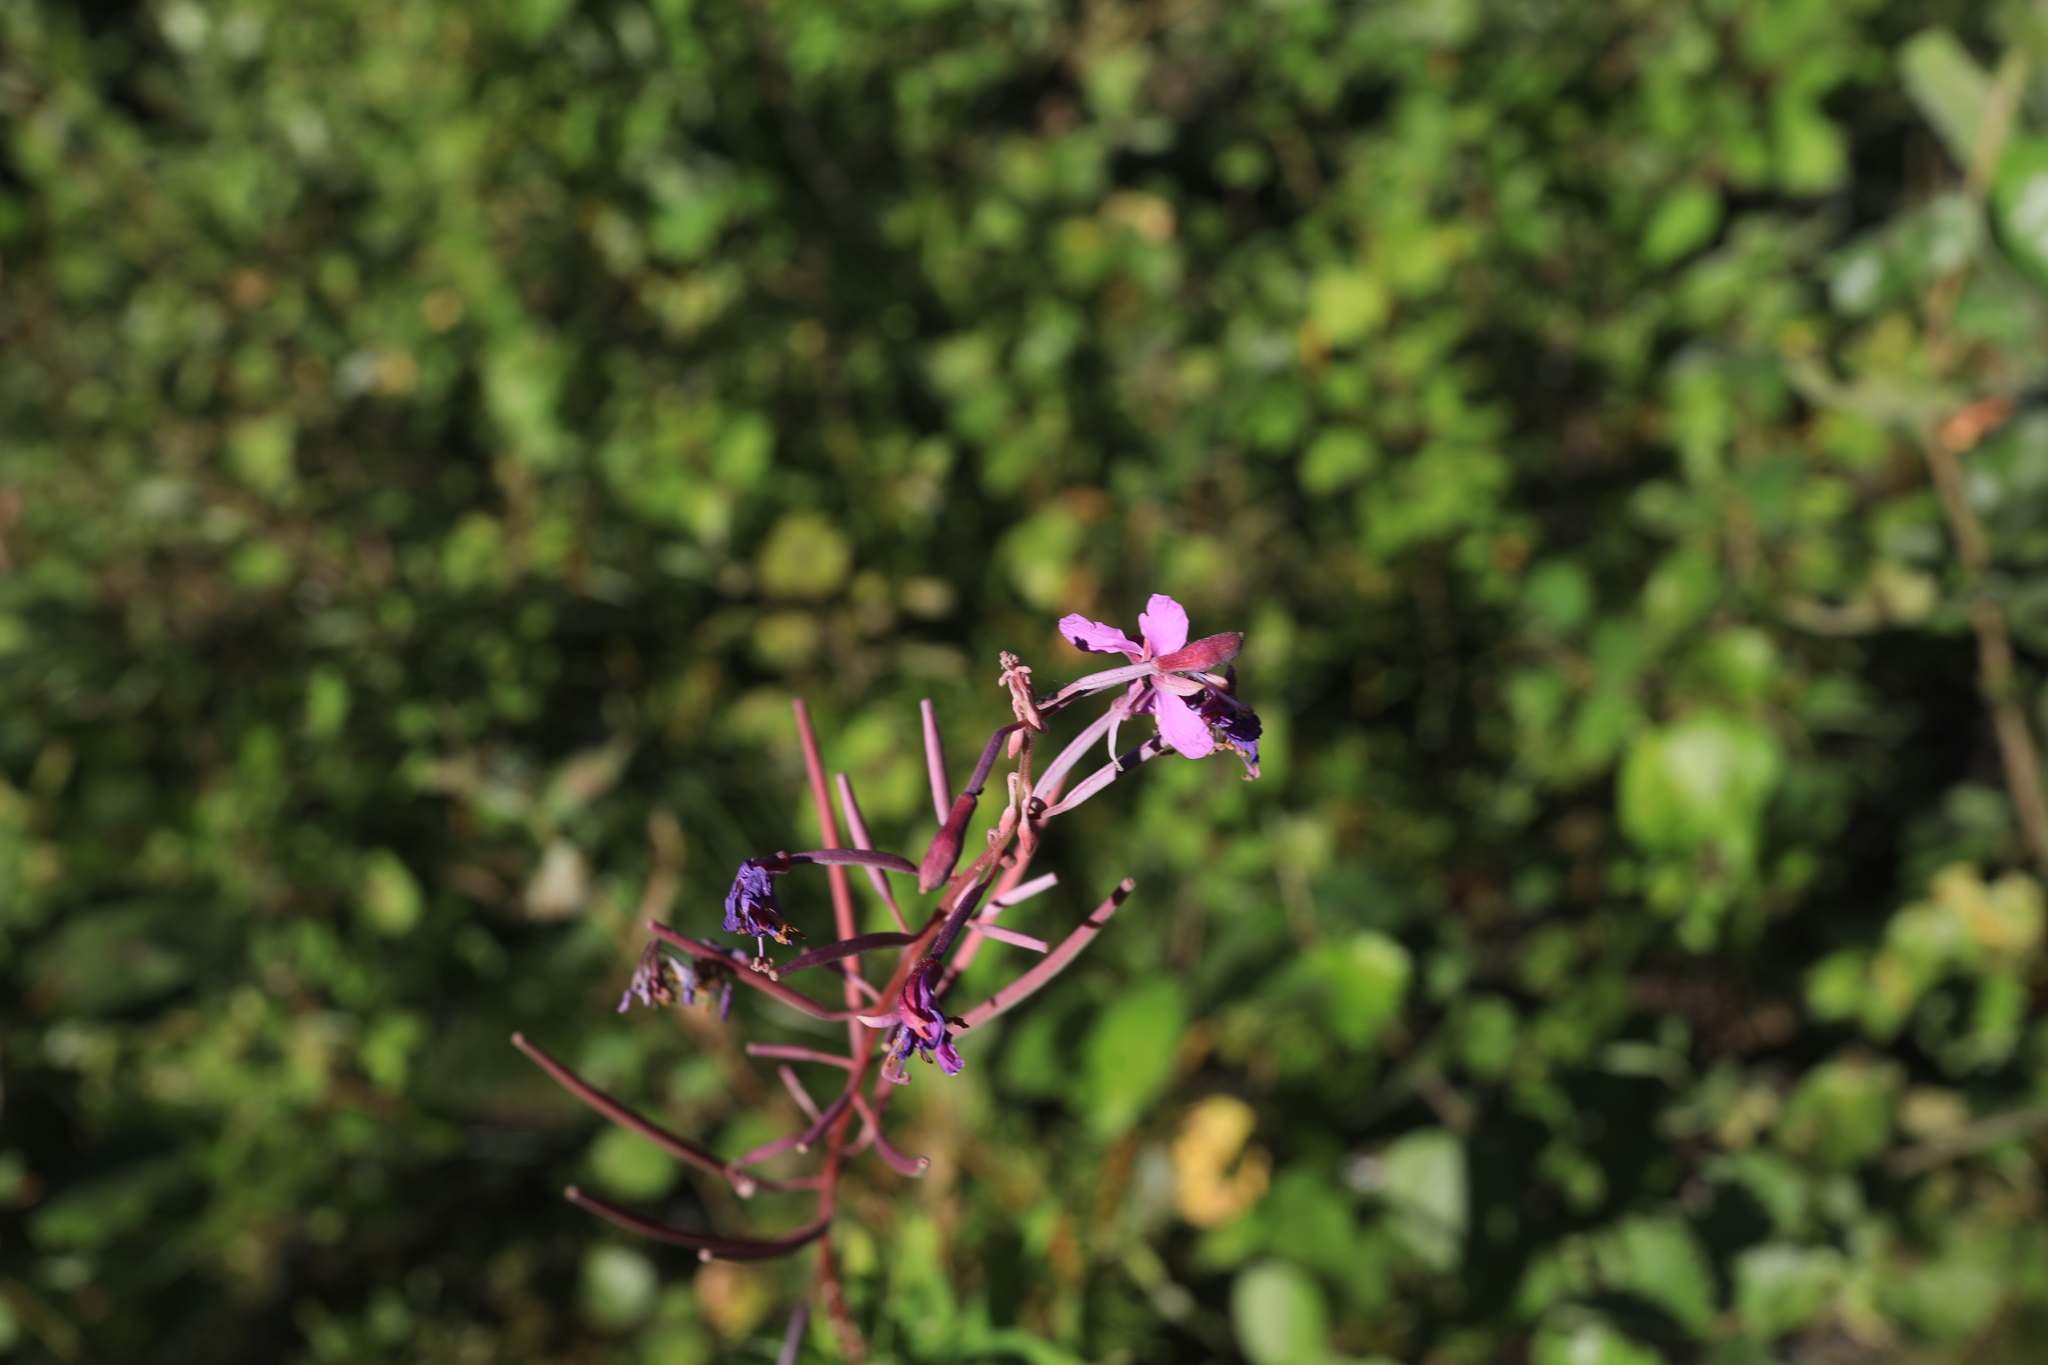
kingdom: Plantae
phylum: Tracheophyta
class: Magnoliopsida
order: Myrtales
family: Onagraceae
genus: Chamaenerion
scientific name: Chamaenerion angustifolium
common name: Fireweed
